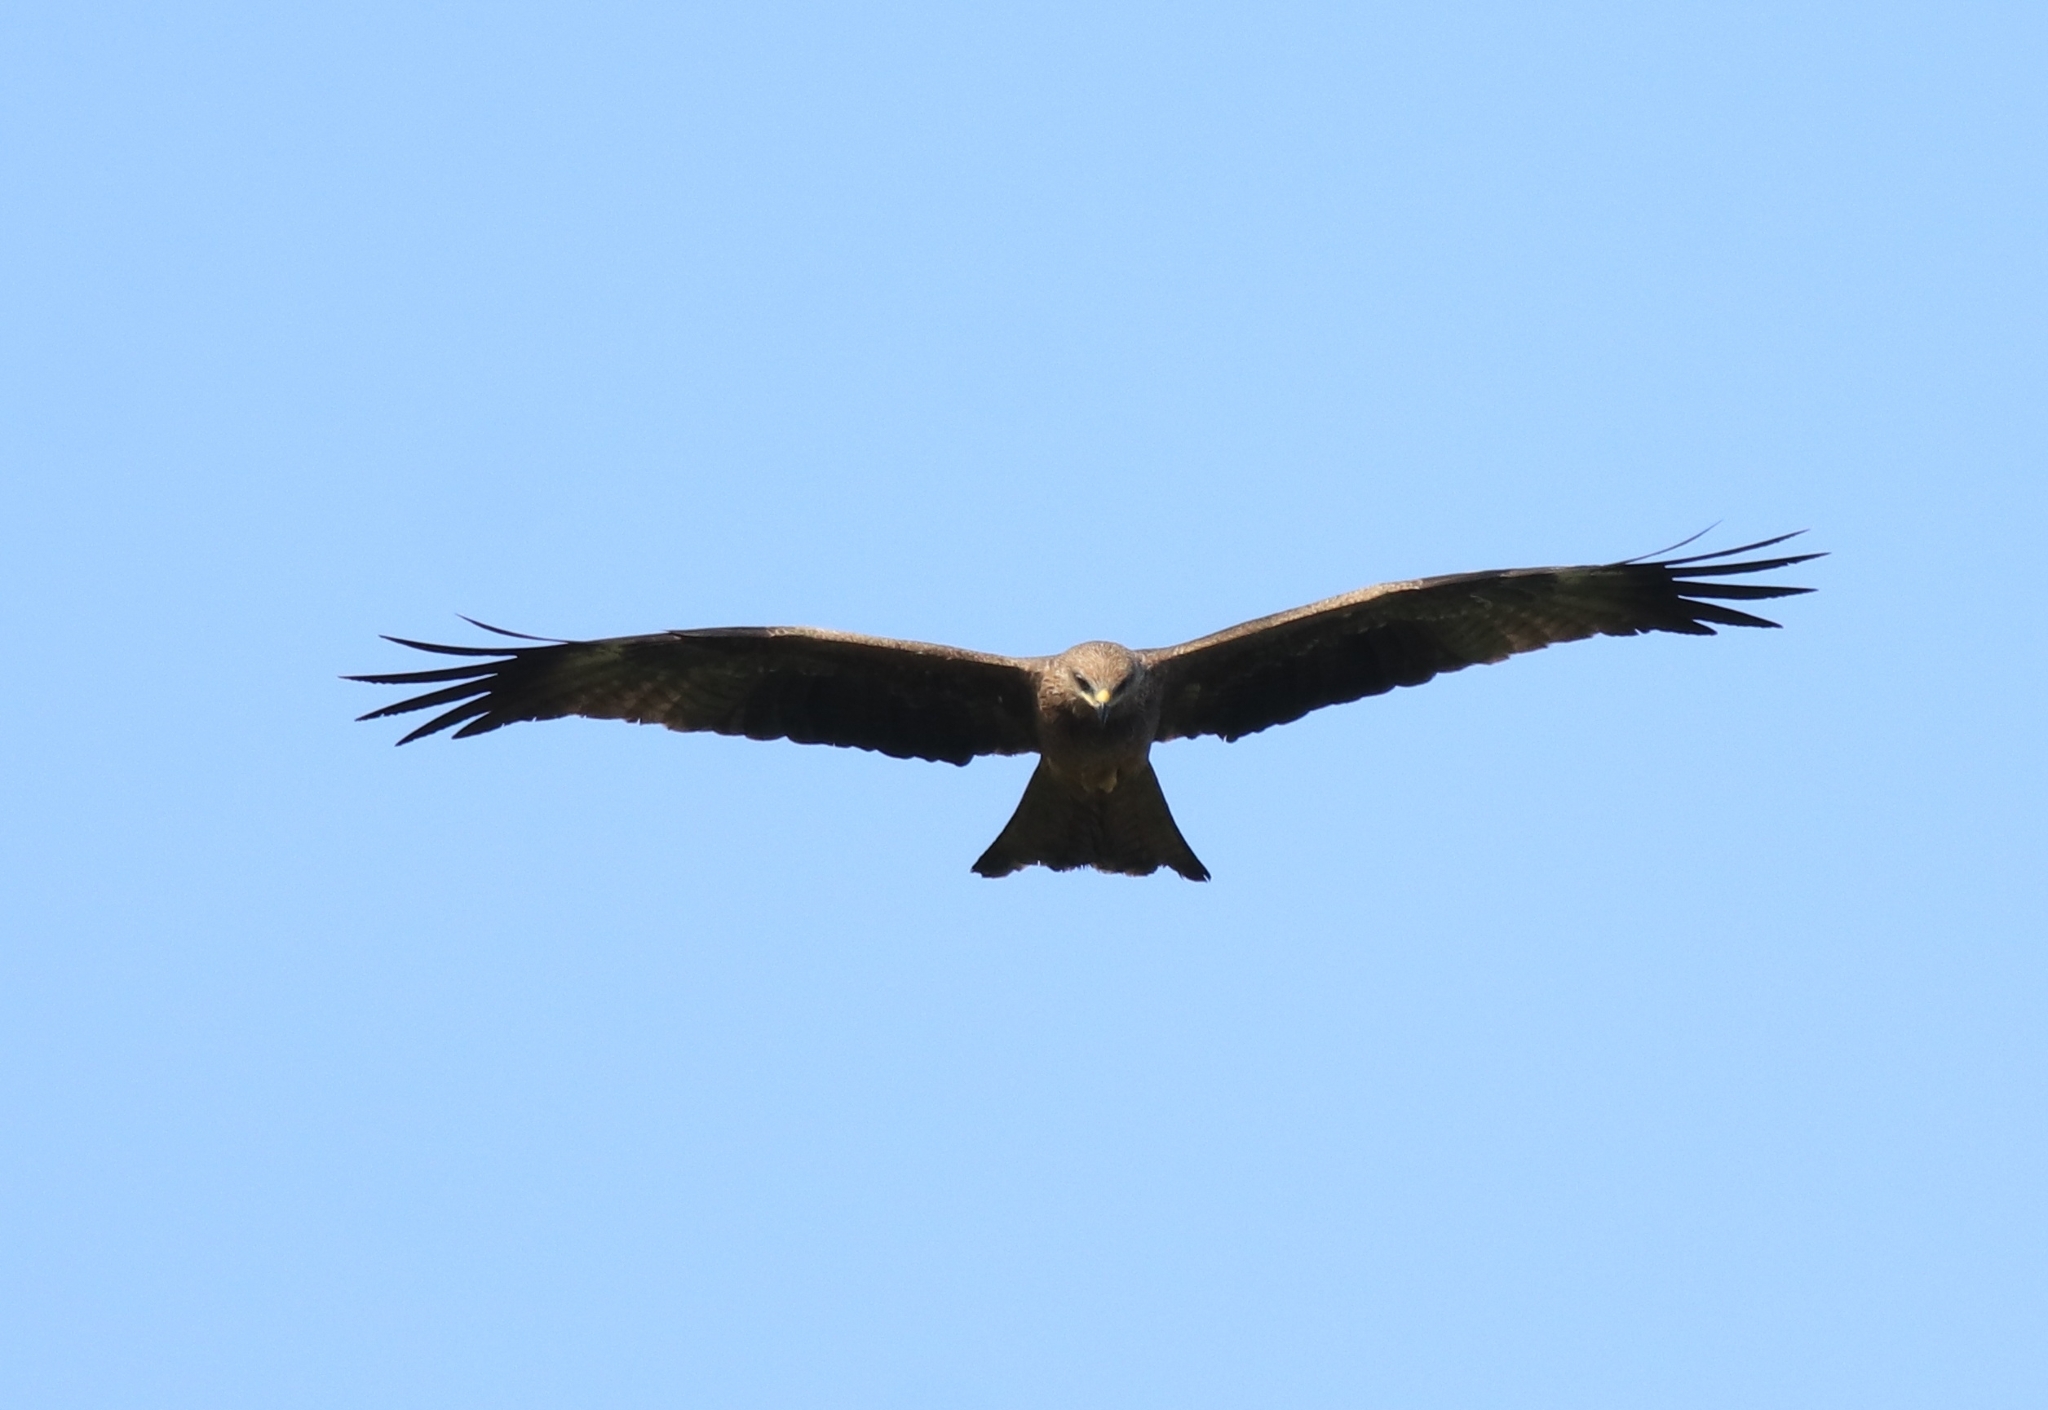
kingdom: Animalia
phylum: Chordata
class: Aves
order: Accipitriformes
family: Accipitridae
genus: Milvus
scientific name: Milvus migrans
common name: Black kite
